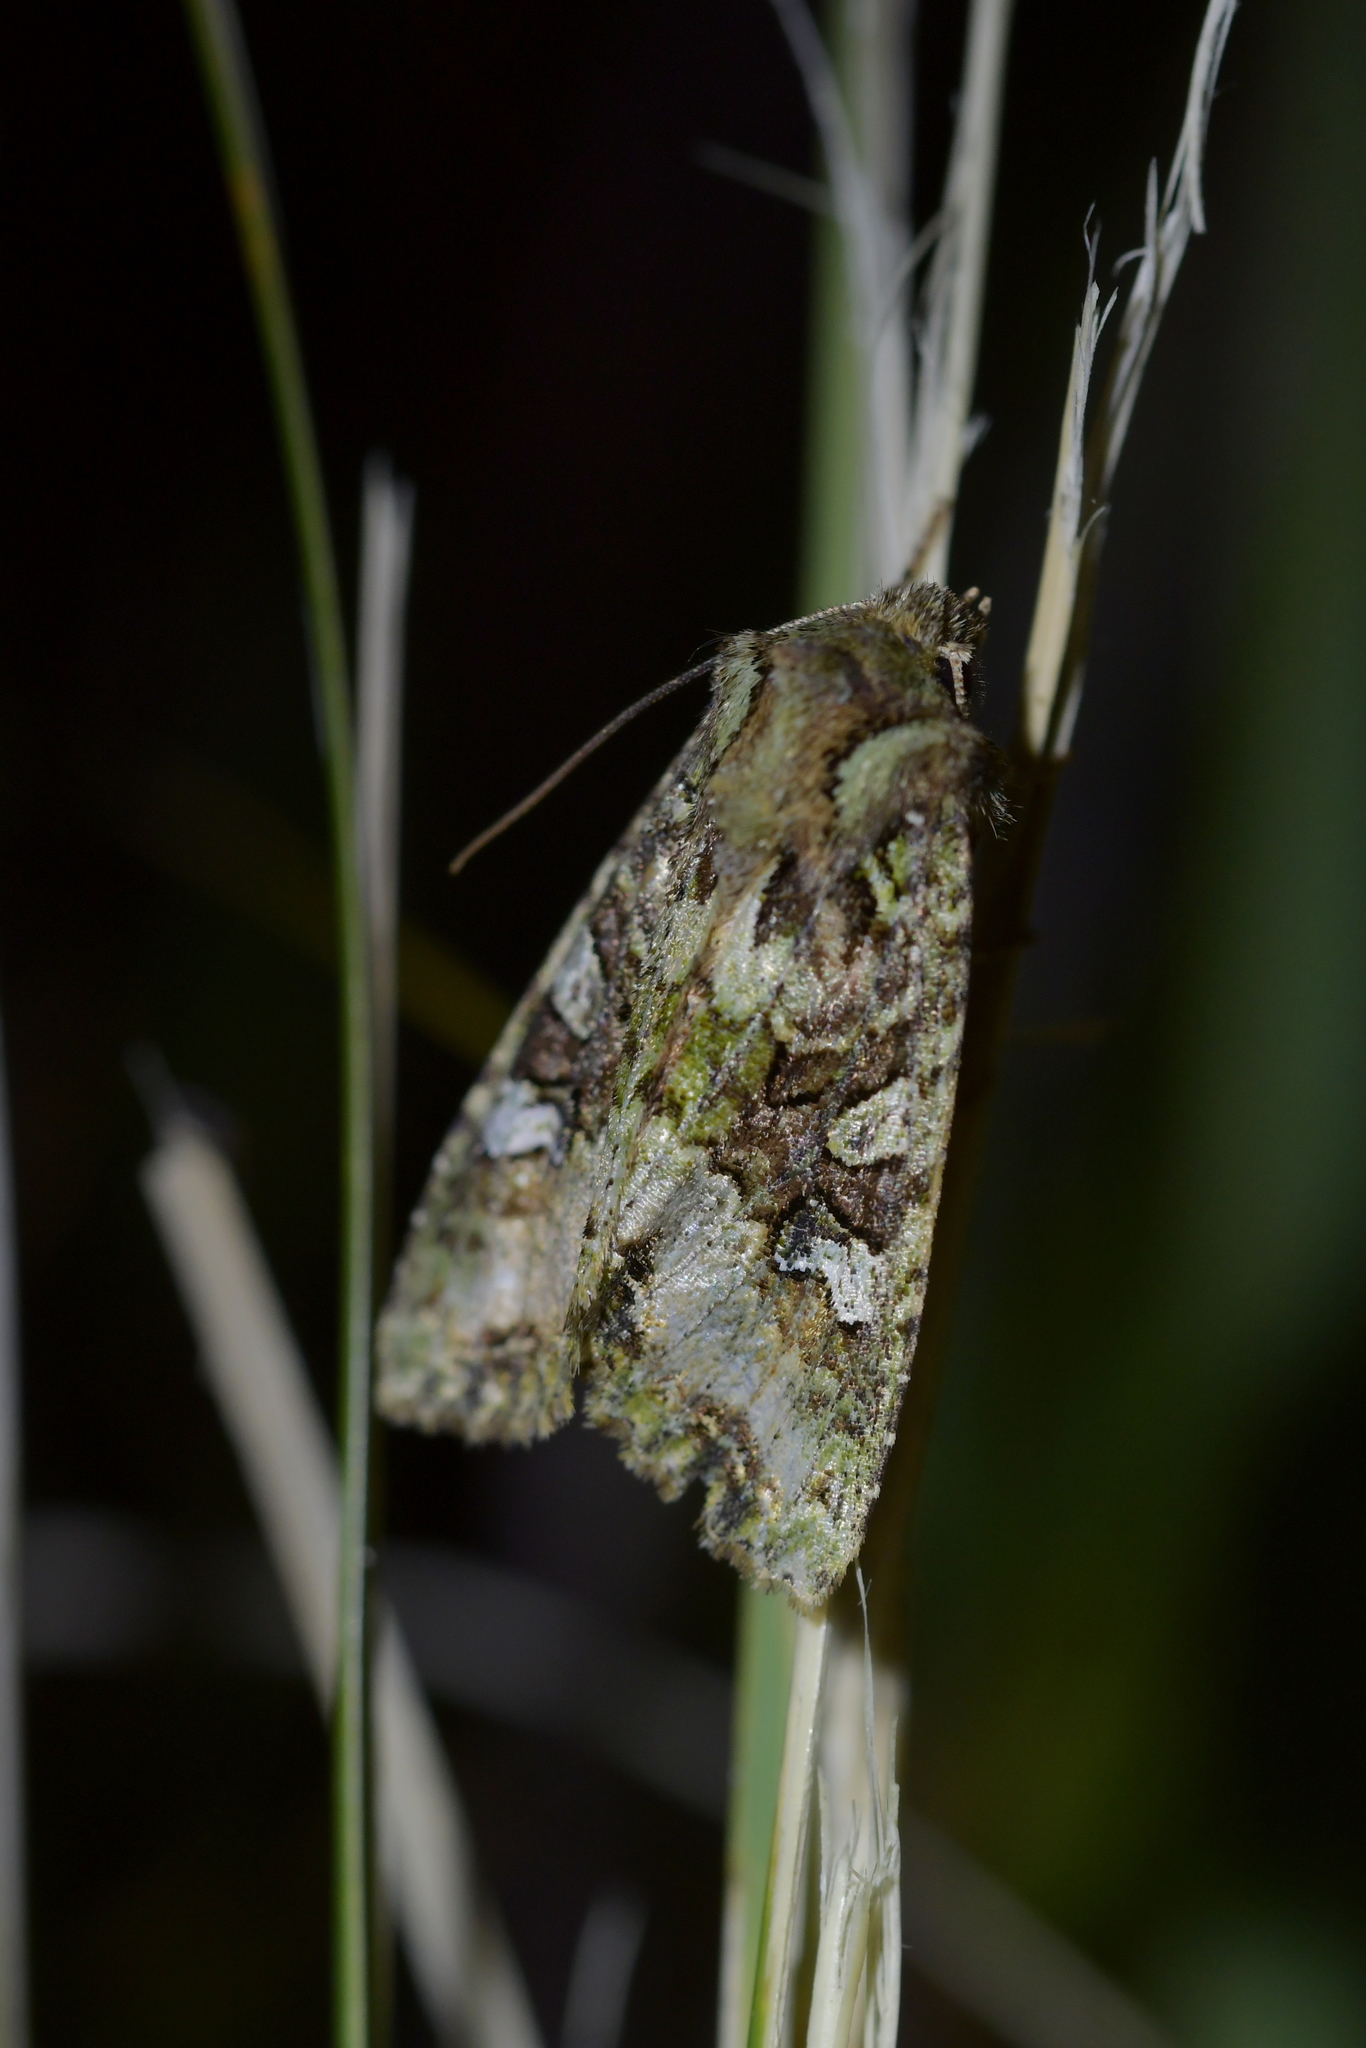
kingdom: Animalia
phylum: Arthropoda
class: Insecta
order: Lepidoptera
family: Noctuidae
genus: Meterana
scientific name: Meterana
